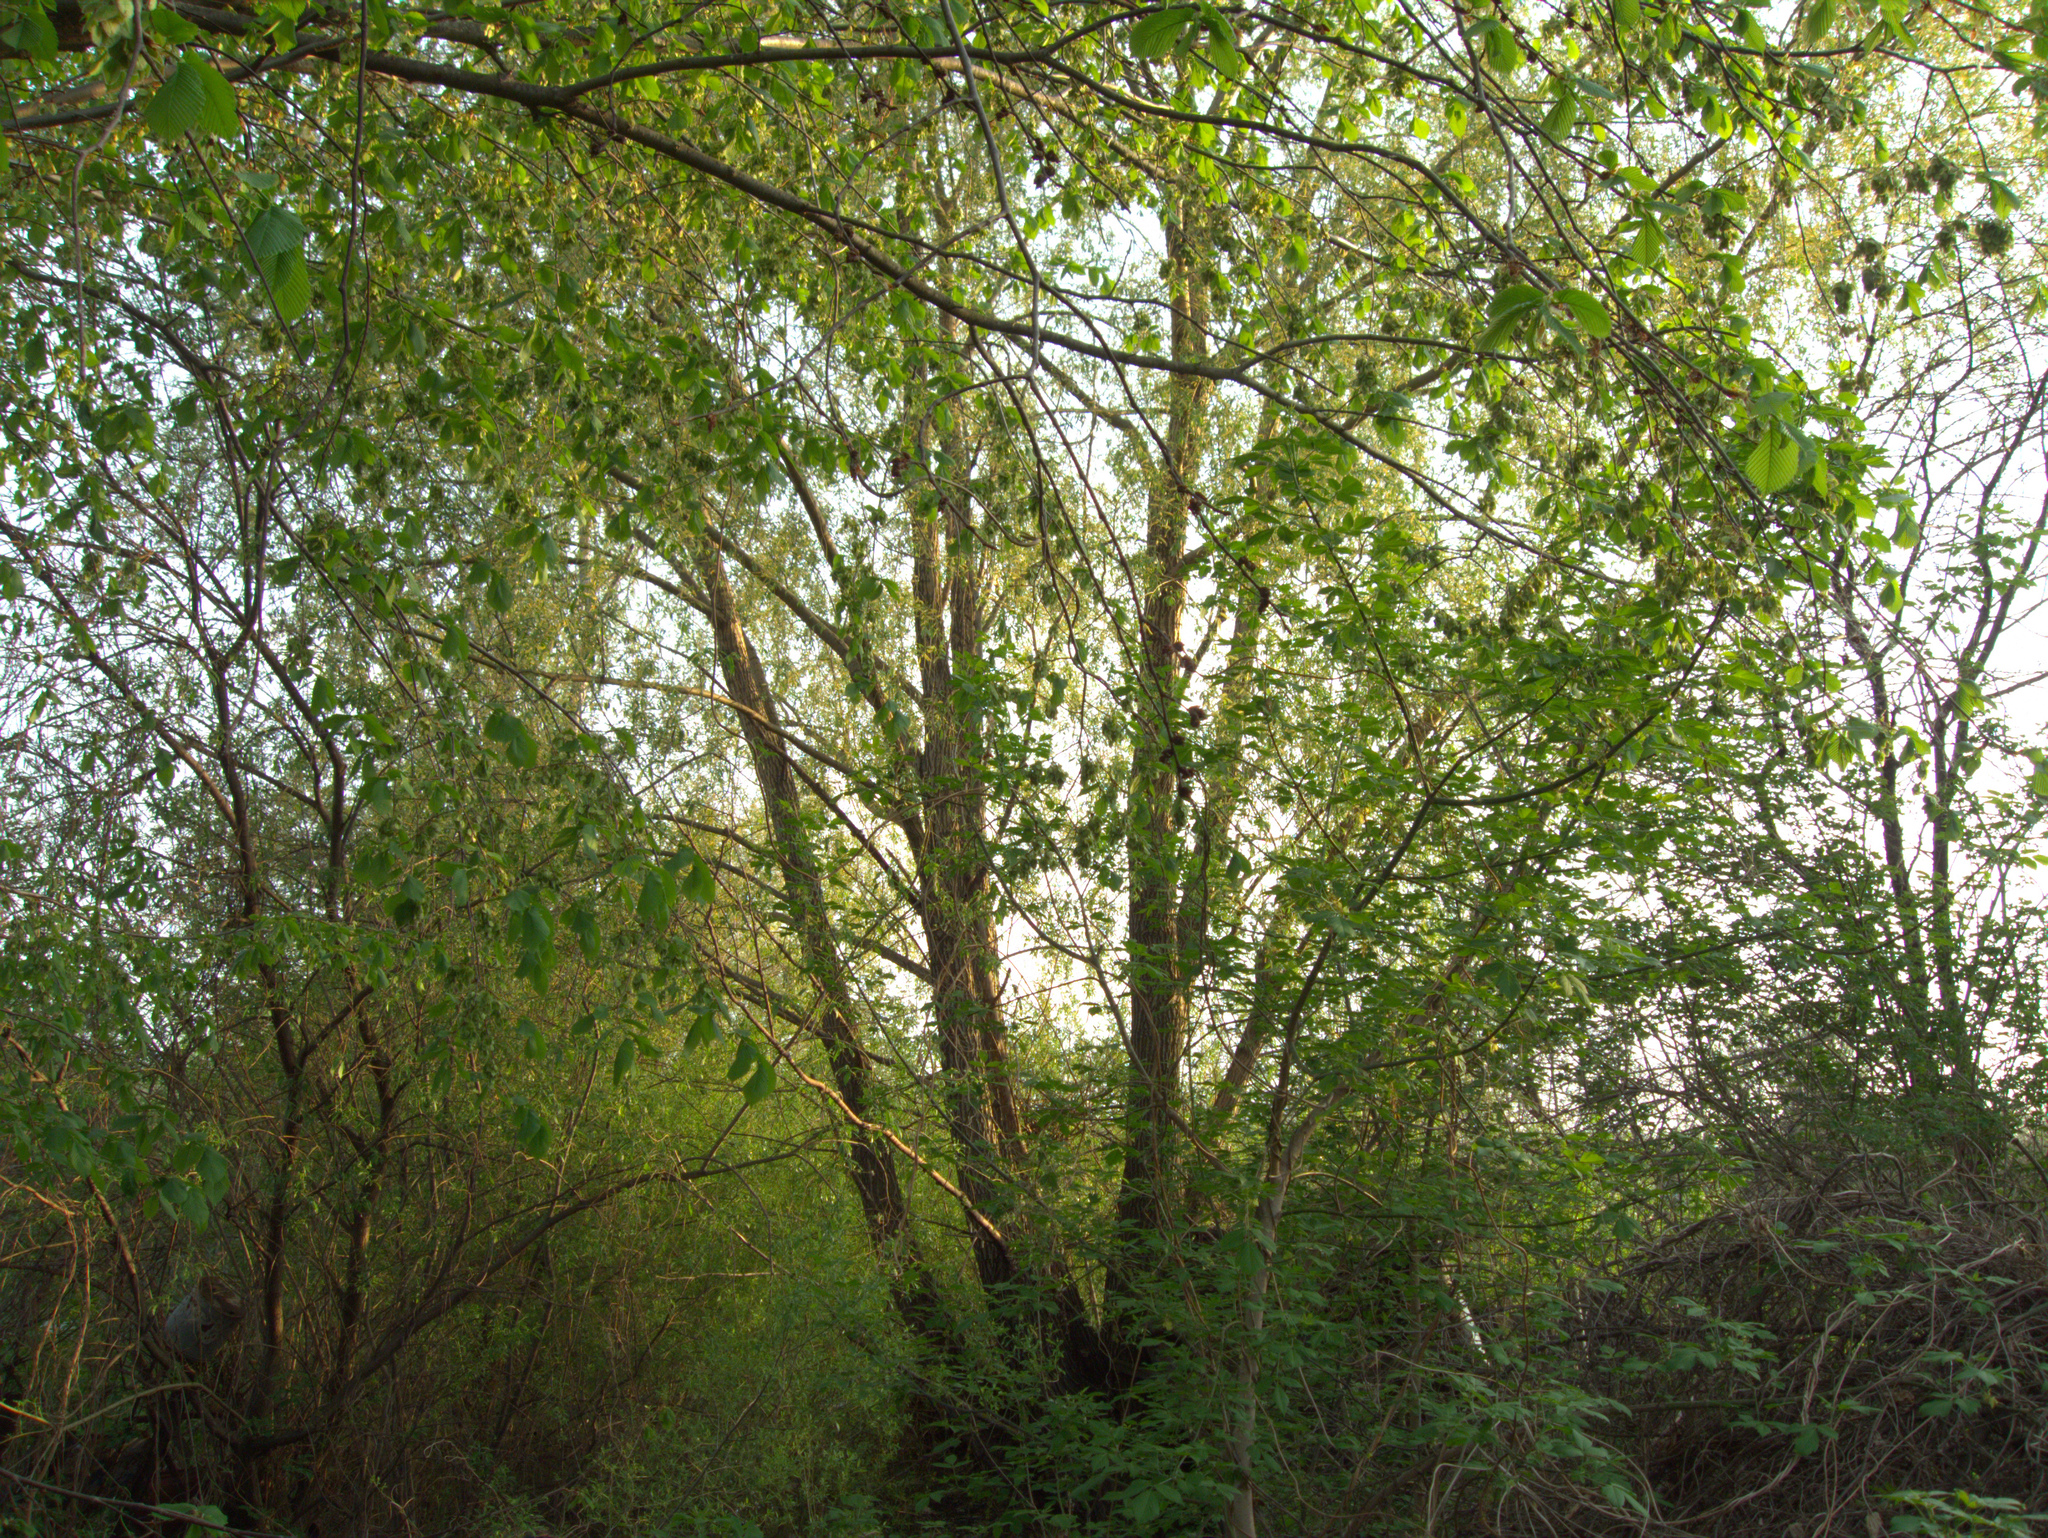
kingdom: Plantae
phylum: Tracheophyta
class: Magnoliopsida
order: Sapindales
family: Sapindaceae
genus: Acer
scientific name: Acer negundo
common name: Ashleaf maple
